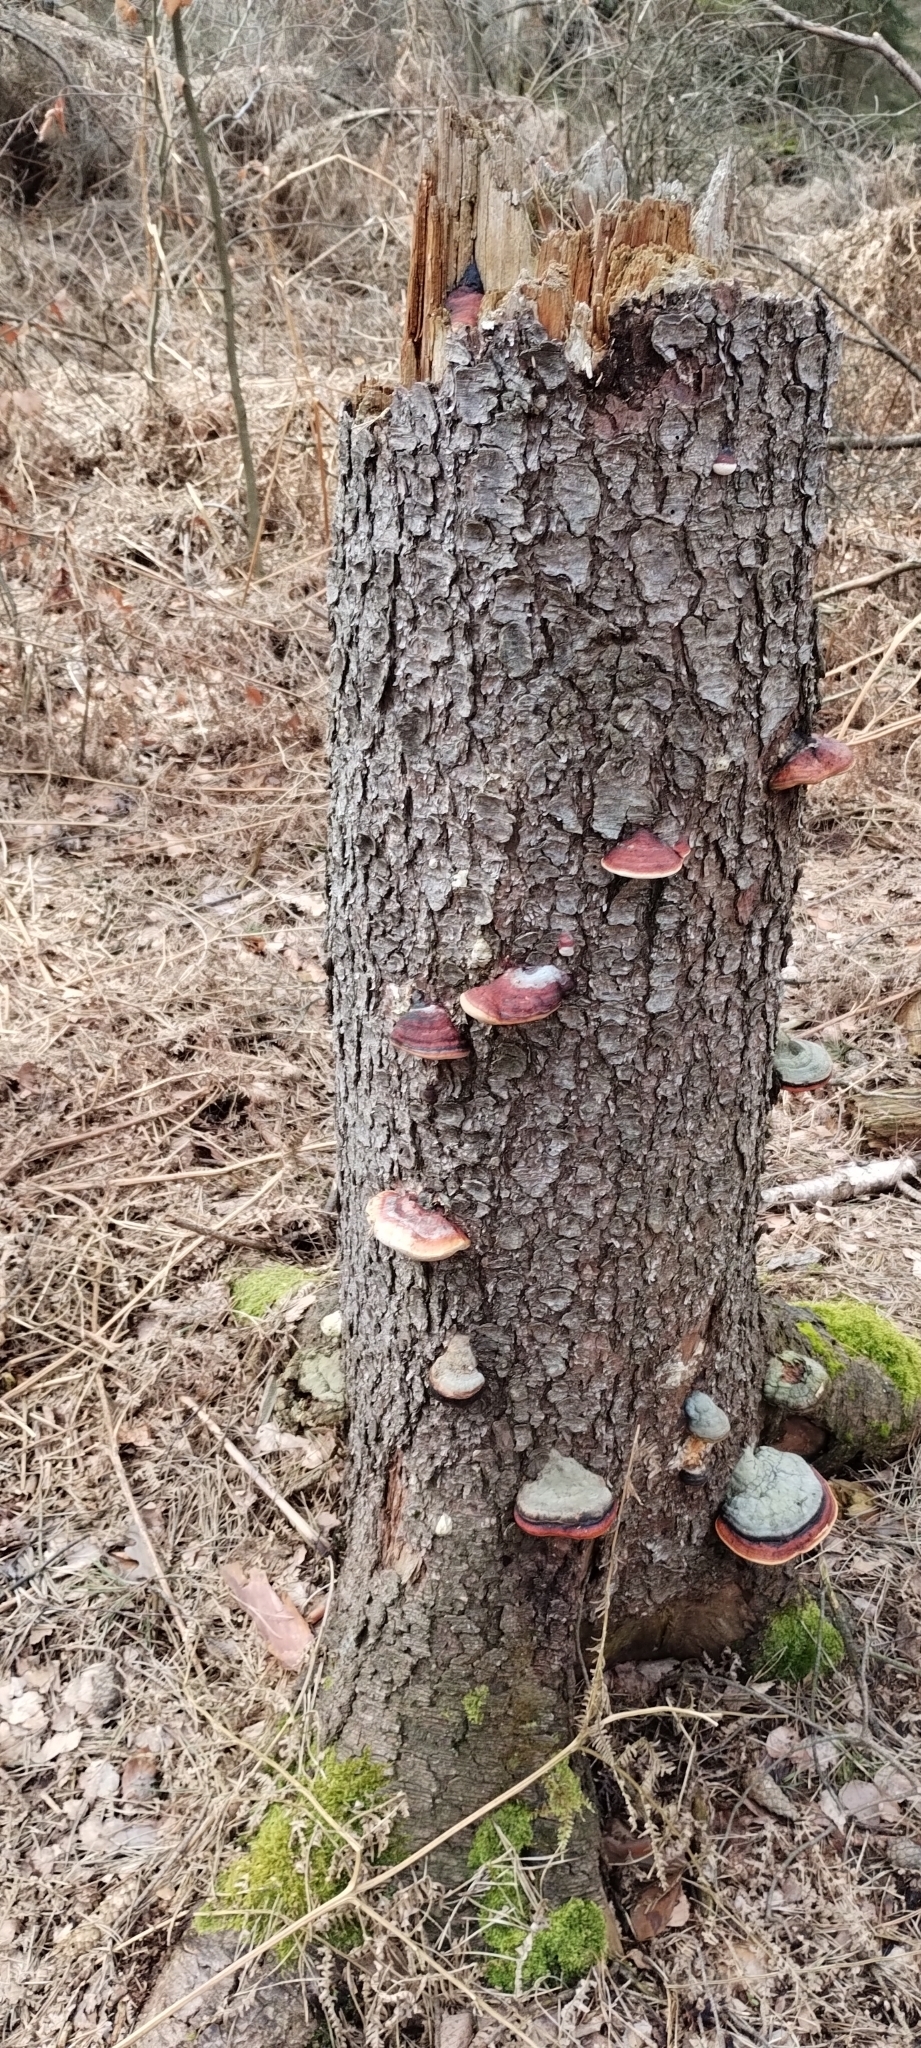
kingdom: Fungi
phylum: Basidiomycota
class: Agaricomycetes
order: Polyporales
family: Fomitopsidaceae
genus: Fomitopsis
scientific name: Fomitopsis pinicola
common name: Red-belted bracket
